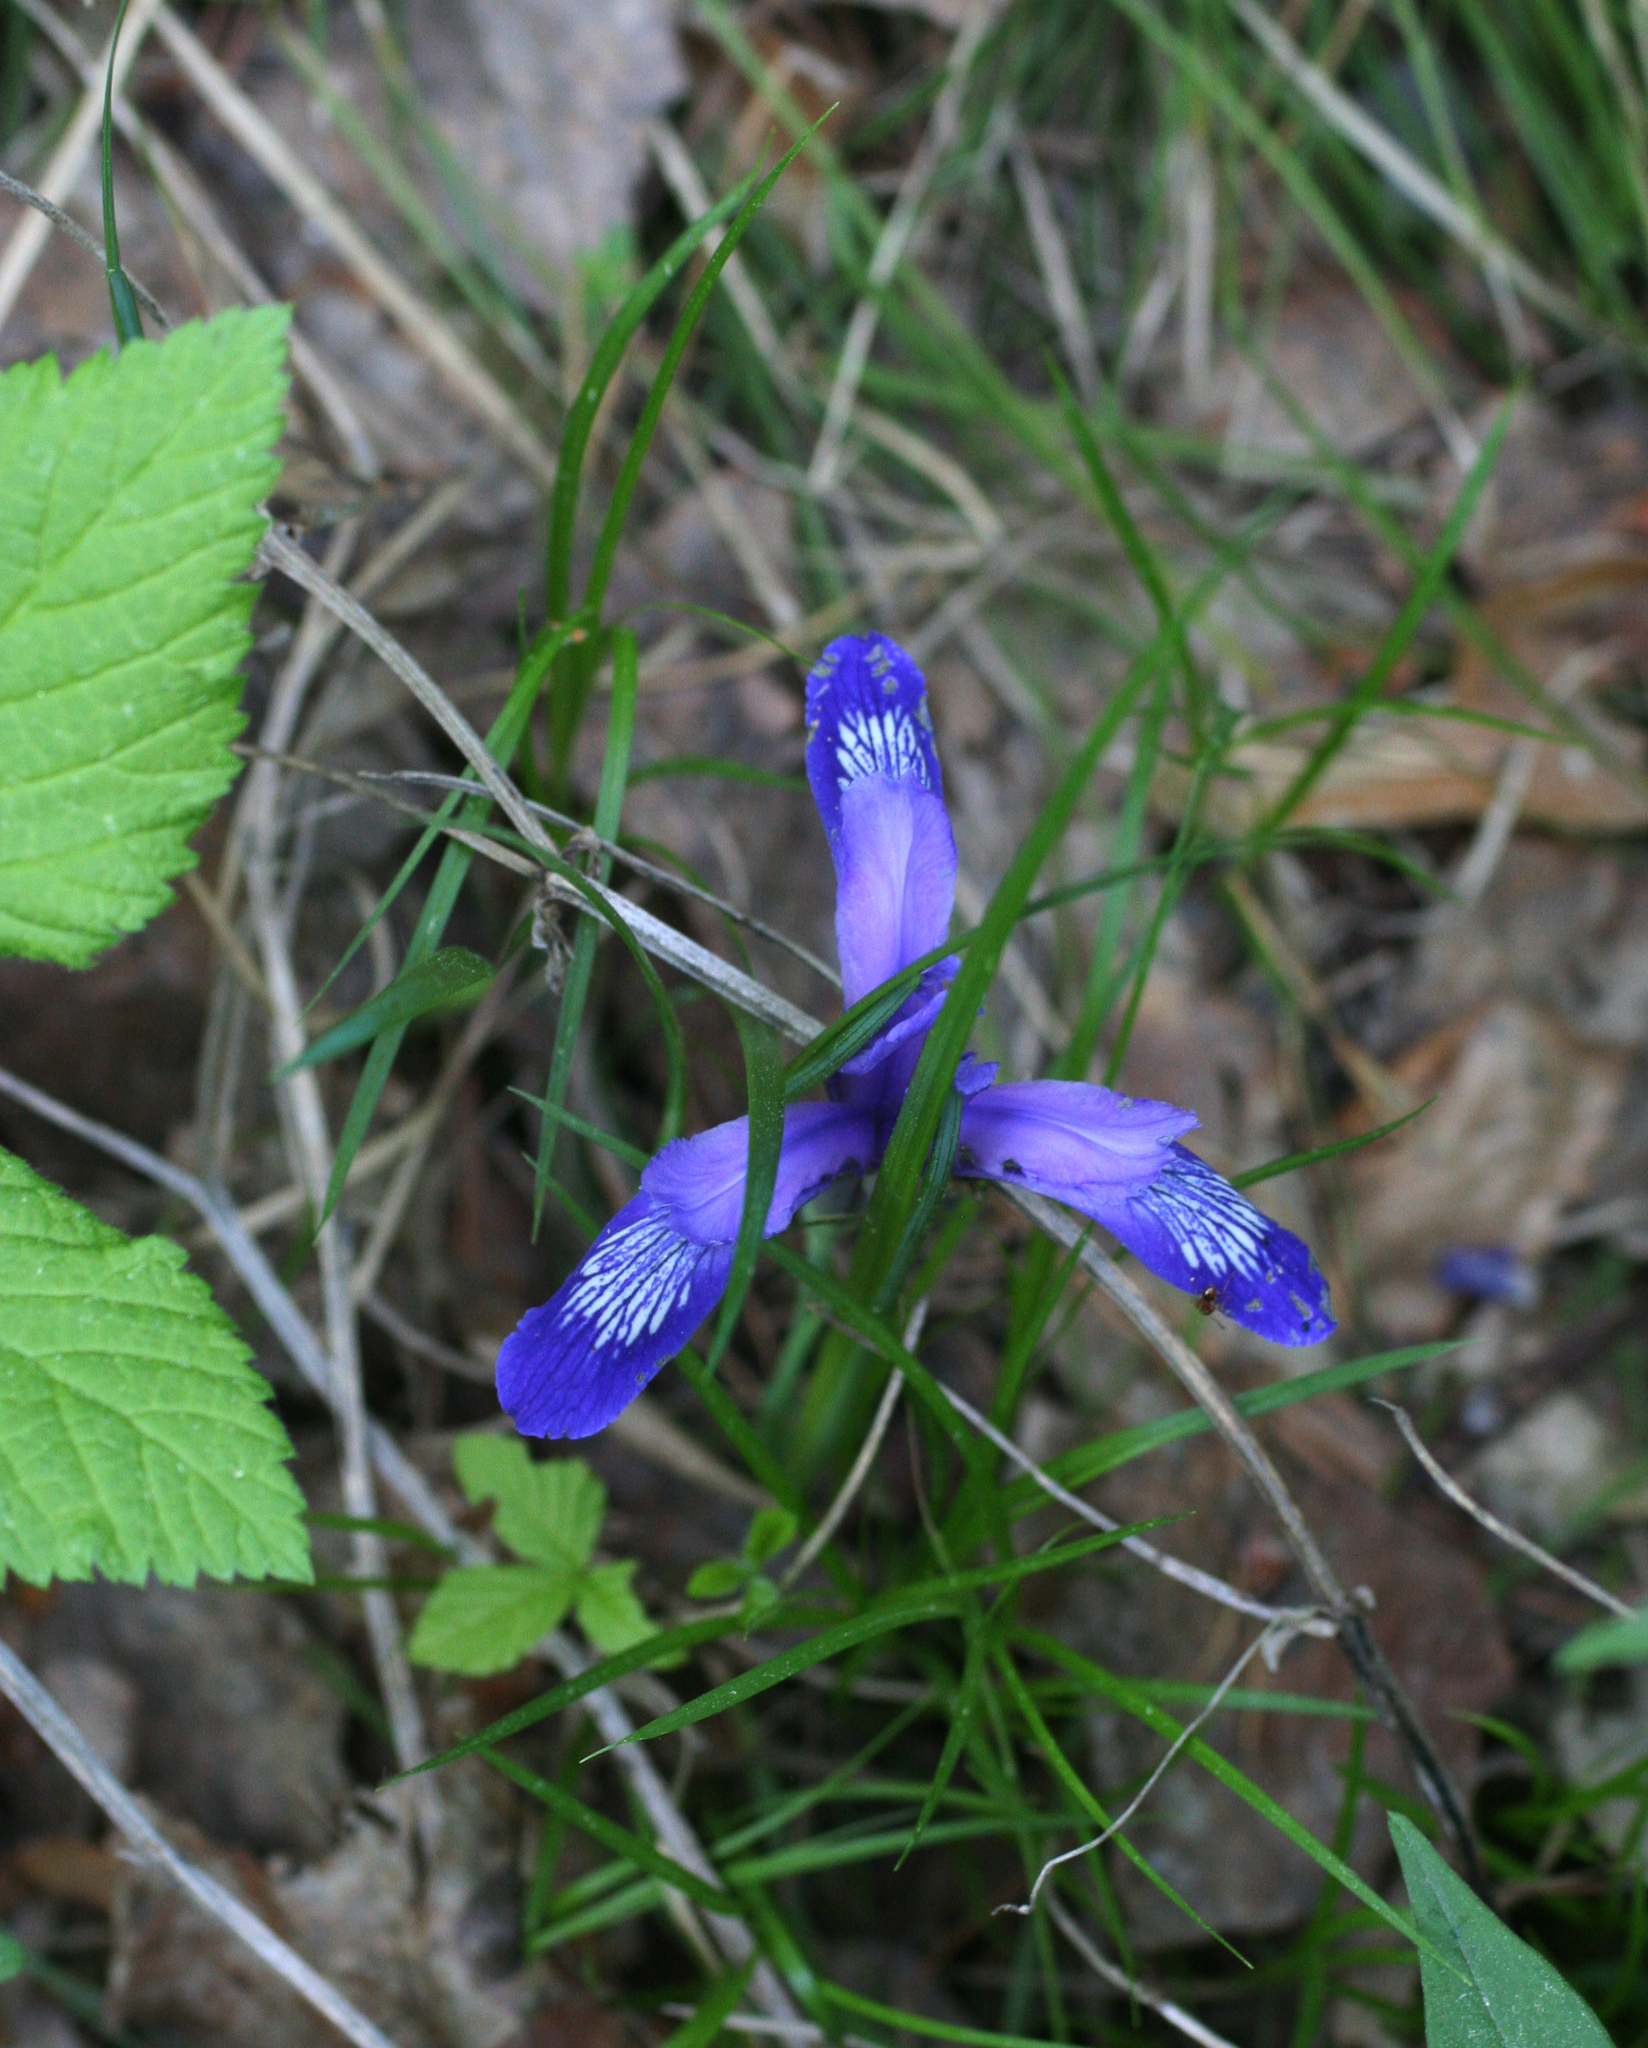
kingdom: Plantae
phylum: Tracheophyta
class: Liliopsida
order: Asparagales
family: Iridaceae
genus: Iris
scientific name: Iris ruthenica
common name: Purple-bract iris
